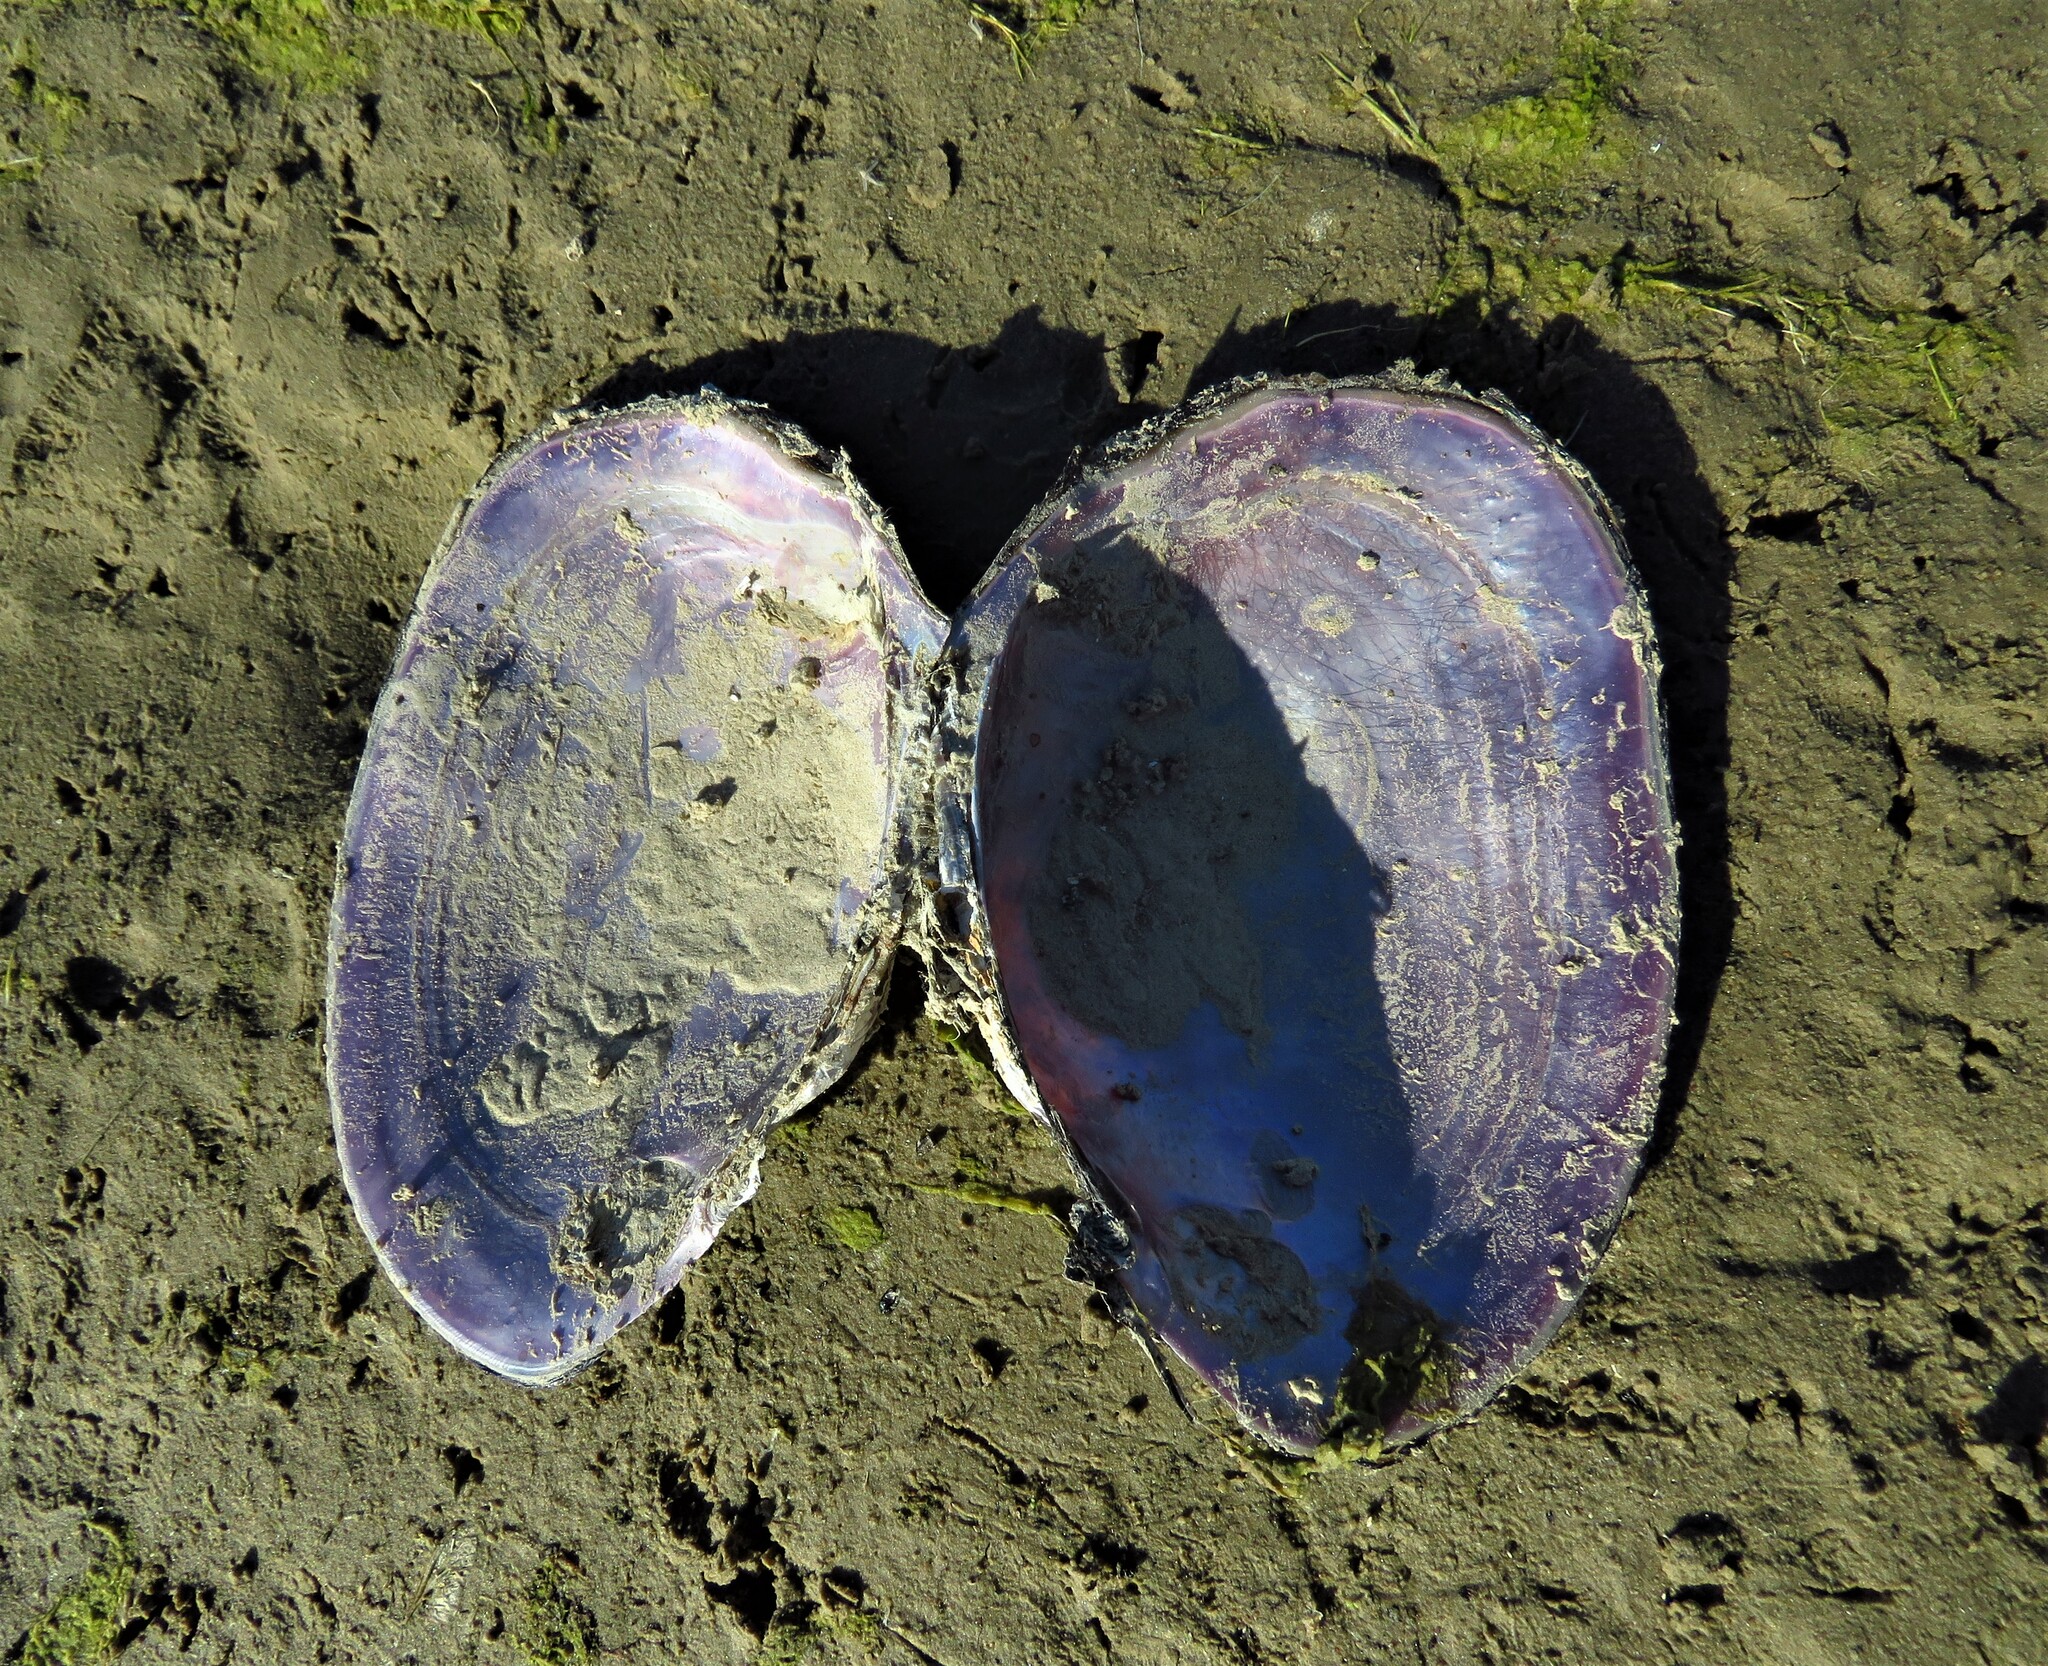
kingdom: Animalia
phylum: Mollusca
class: Bivalvia
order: Unionida
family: Unionidae
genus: Potamilus
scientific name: Potamilus ohiensis
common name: Pink papershell
